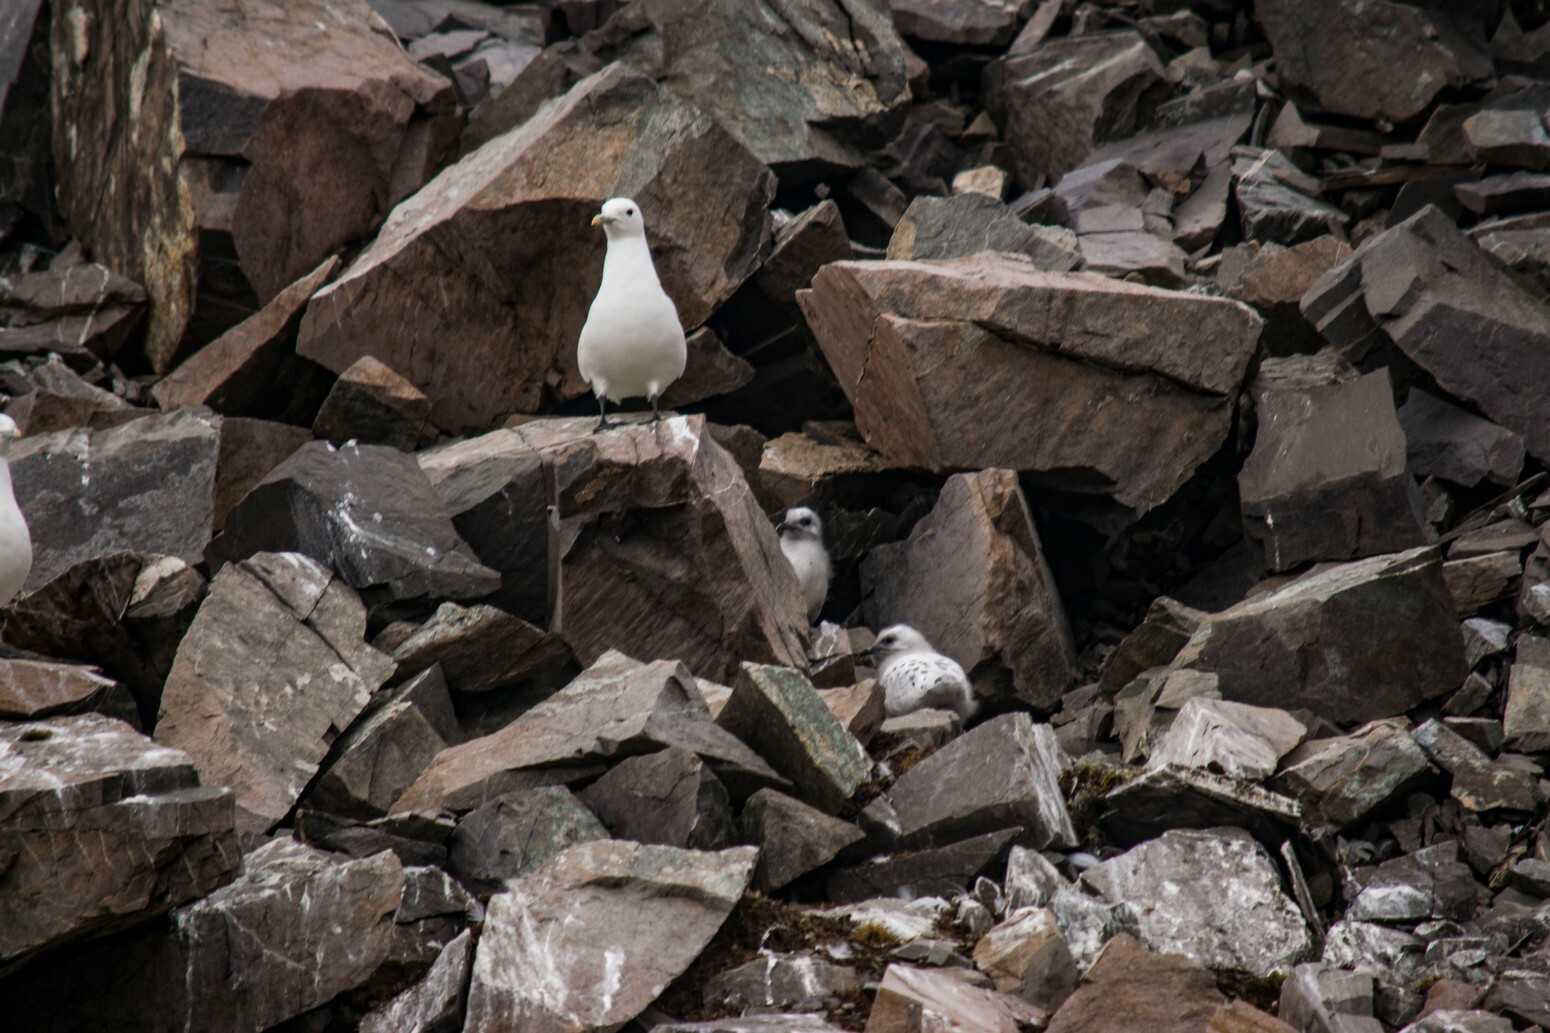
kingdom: Animalia
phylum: Chordata
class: Aves
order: Charadriiformes
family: Laridae
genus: Pagophila
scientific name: Pagophila eburnea
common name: Ivory gull
